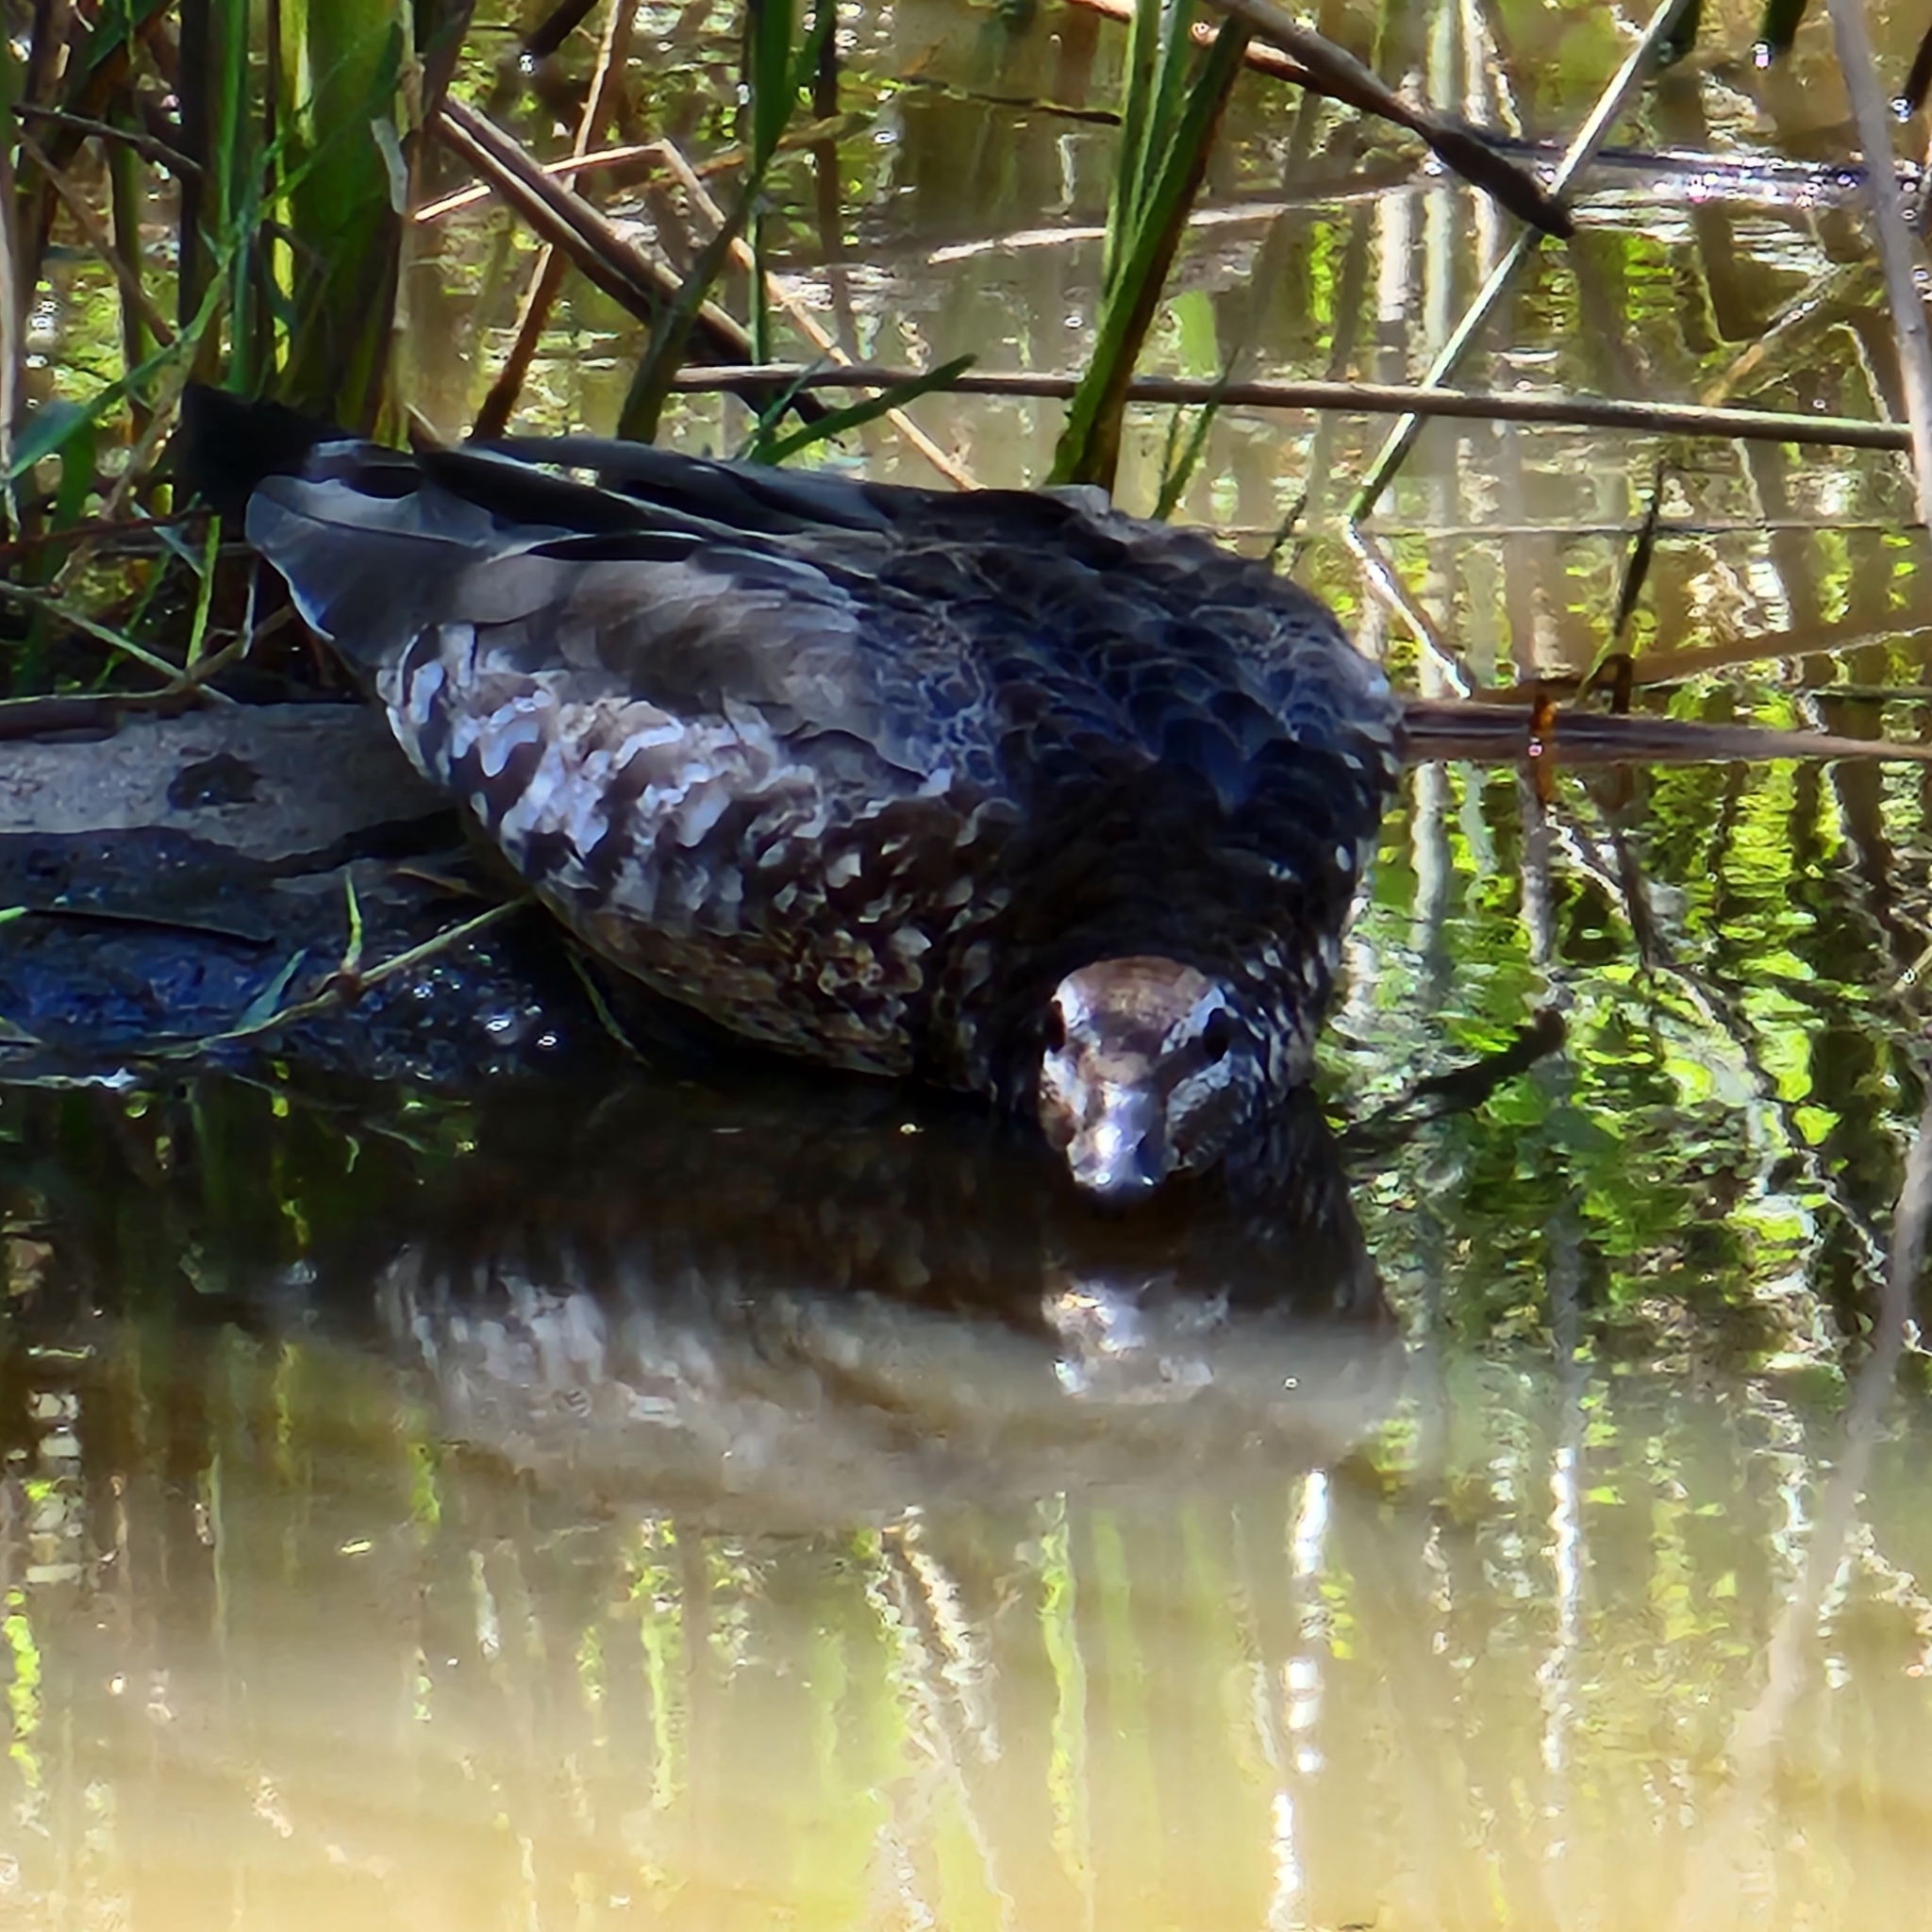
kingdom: Animalia
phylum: Chordata
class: Aves
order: Anseriformes
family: Anatidae
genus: Chenonetta
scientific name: Chenonetta jubata
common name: Maned duck
